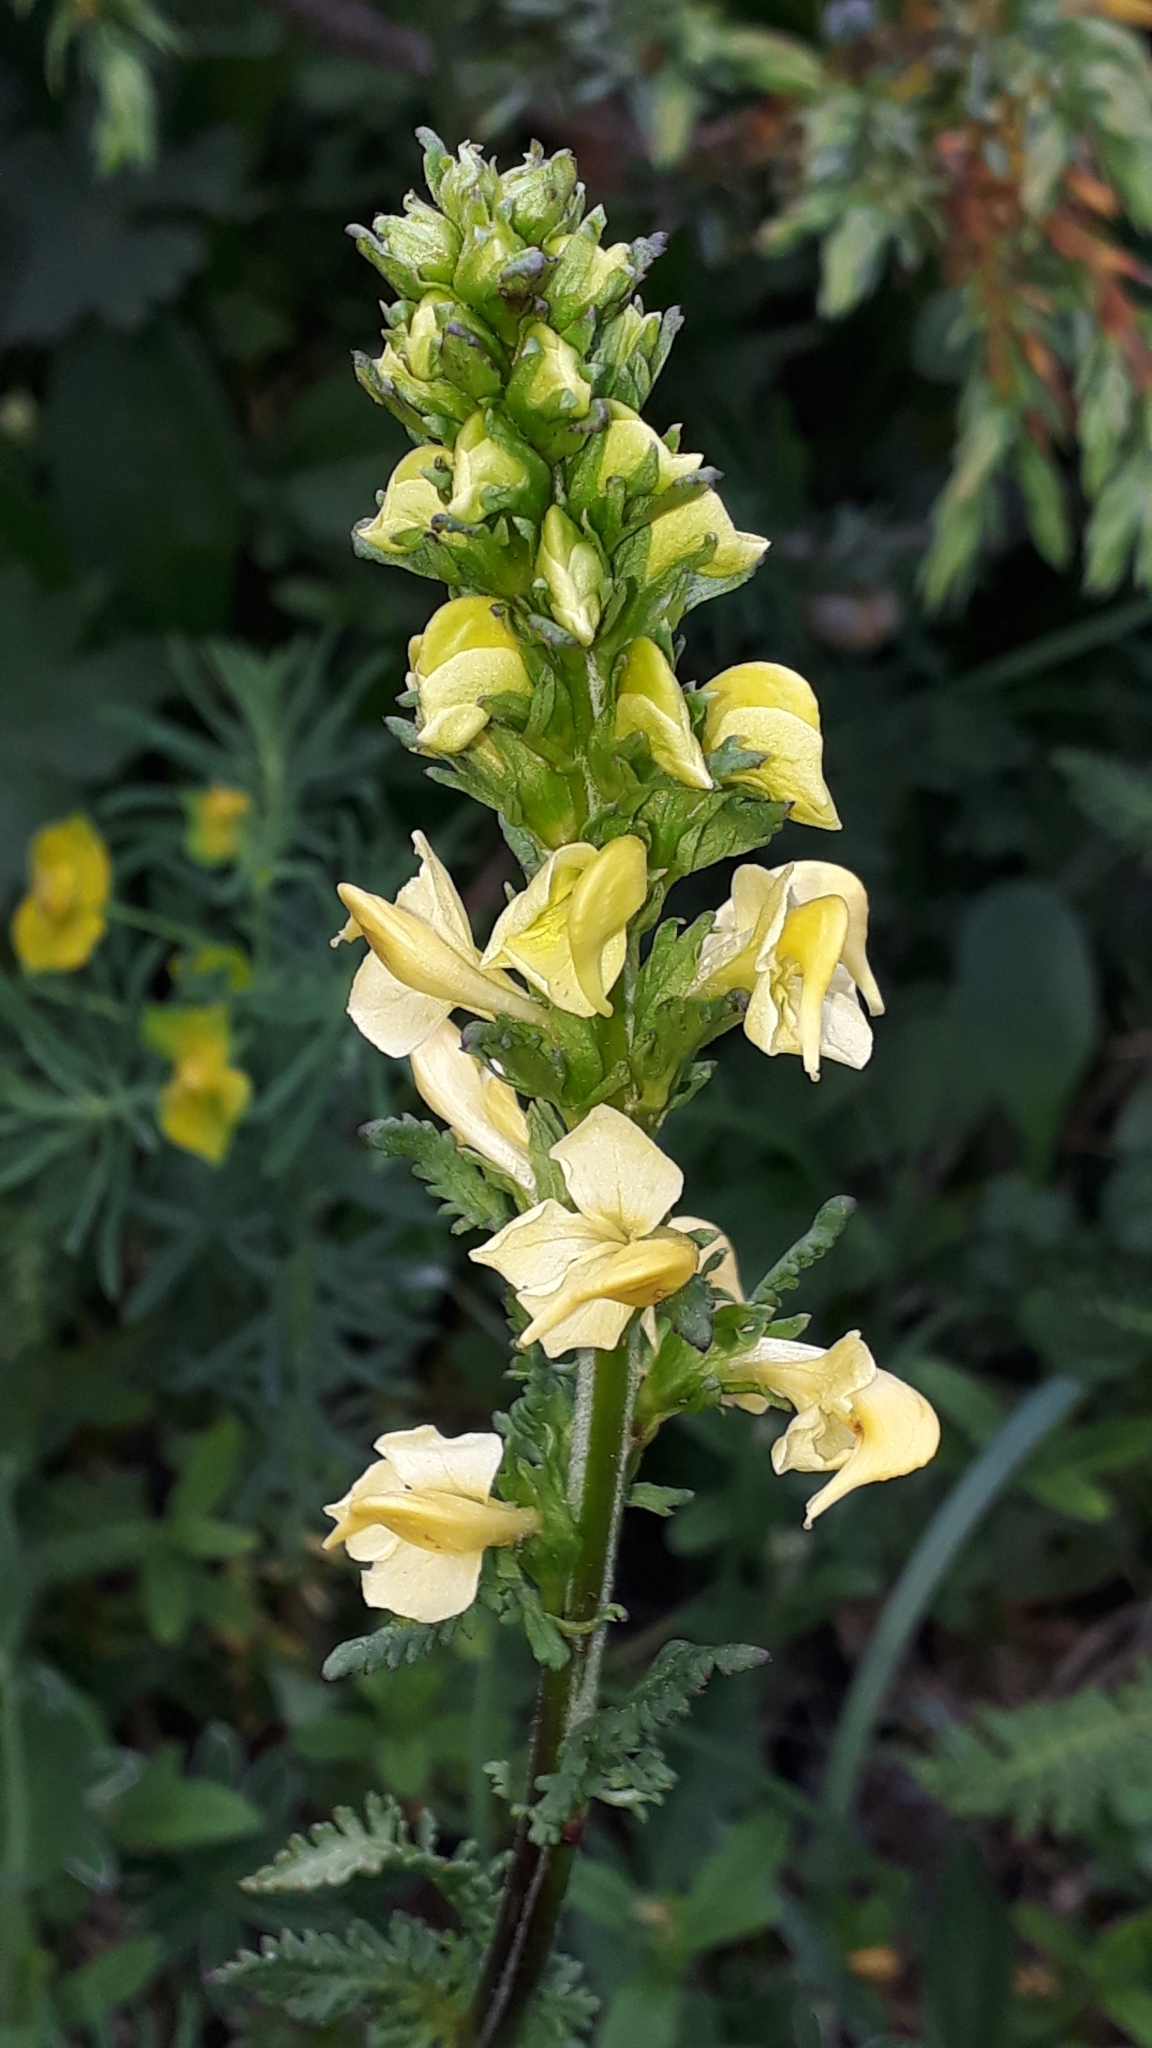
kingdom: Plantae
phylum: Tracheophyta
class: Magnoliopsida
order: Lamiales
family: Orobanchaceae
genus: Pedicularis
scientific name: Pedicularis ascendens
